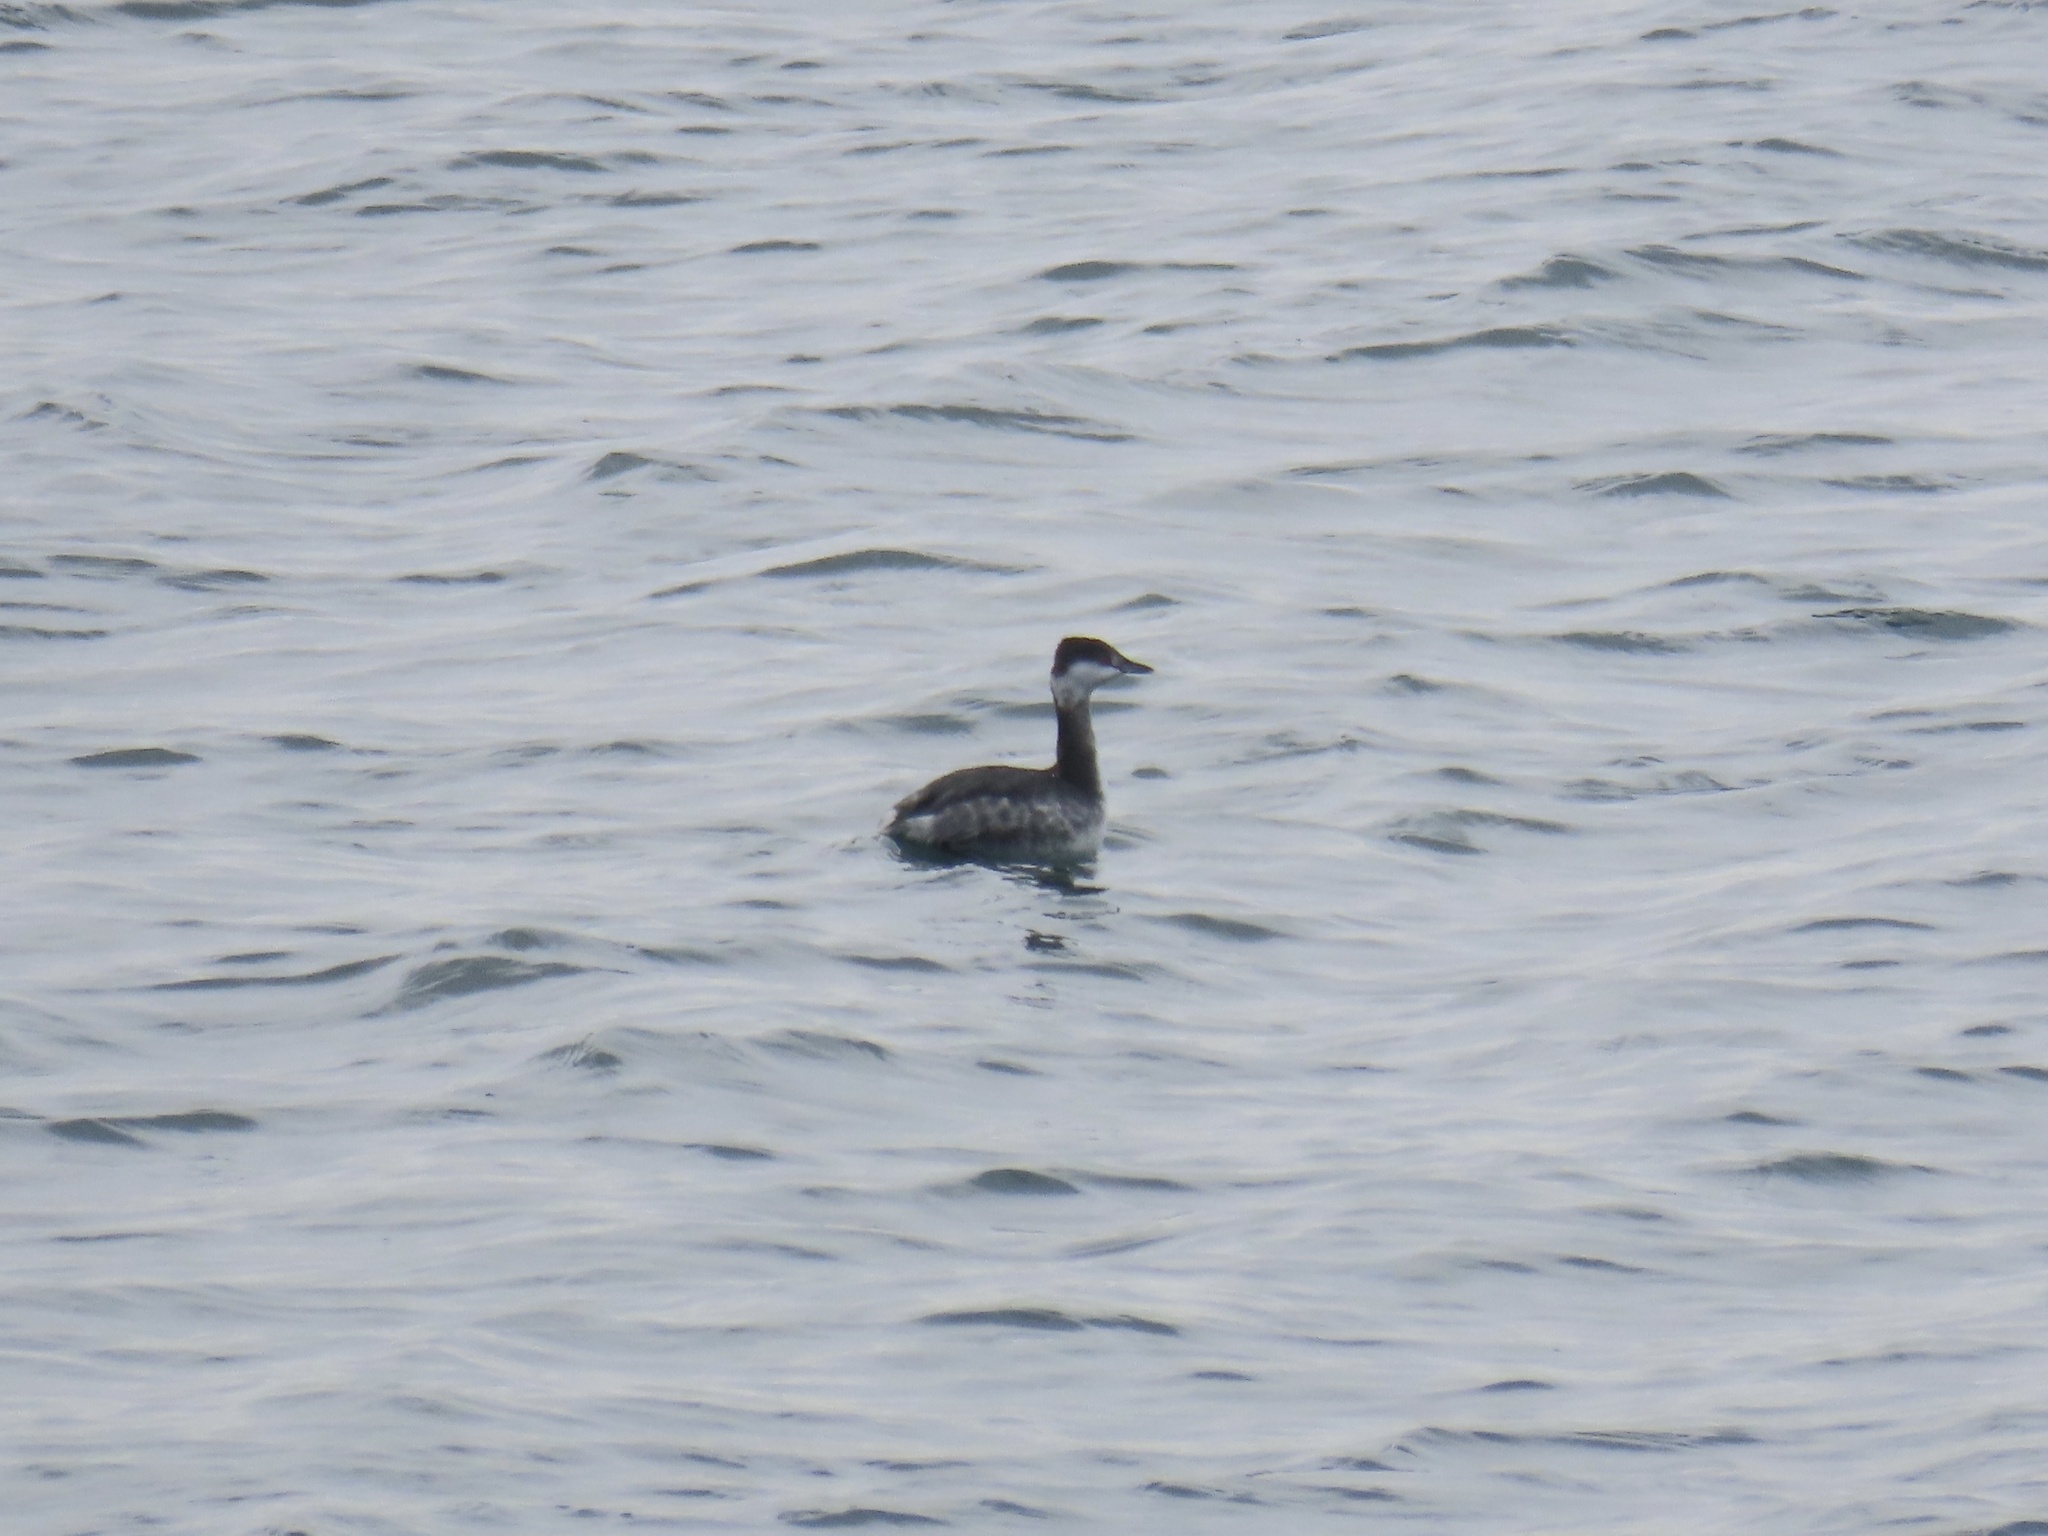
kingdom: Animalia
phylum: Chordata
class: Aves
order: Podicipediformes
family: Podicipedidae
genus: Podiceps
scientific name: Podiceps auritus
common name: Horned grebe
